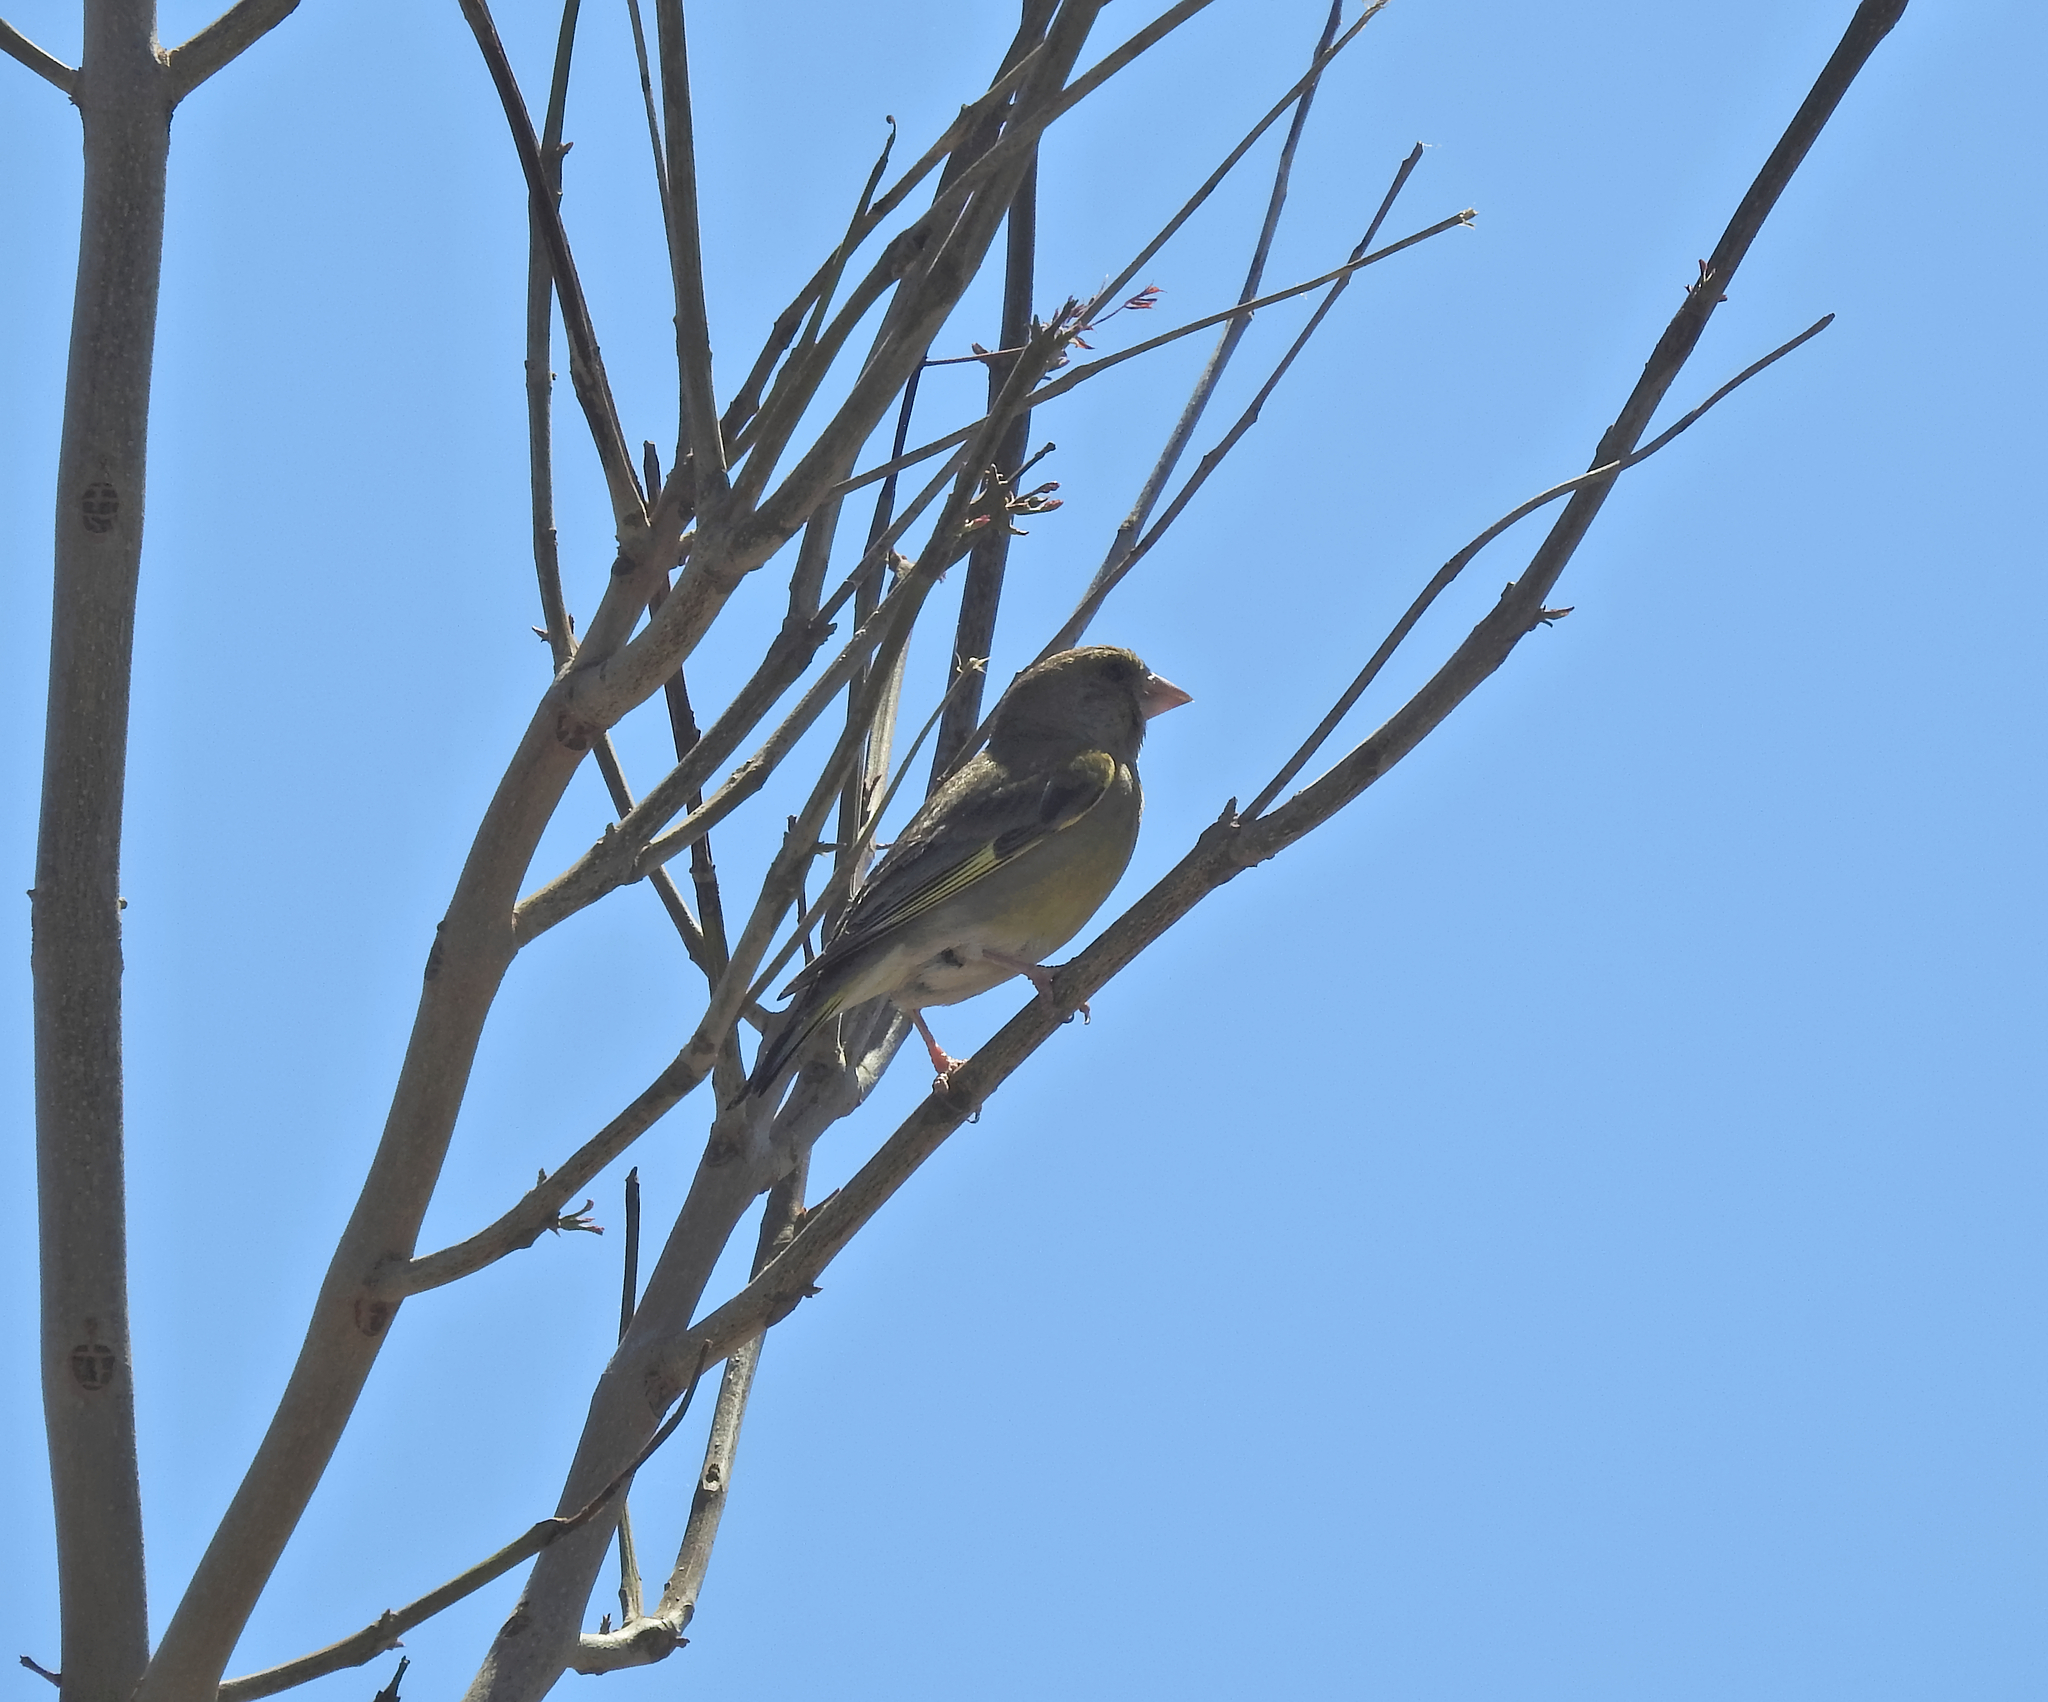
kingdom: Plantae
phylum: Tracheophyta
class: Liliopsida
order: Poales
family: Poaceae
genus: Chloris
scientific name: Chloris chloris
